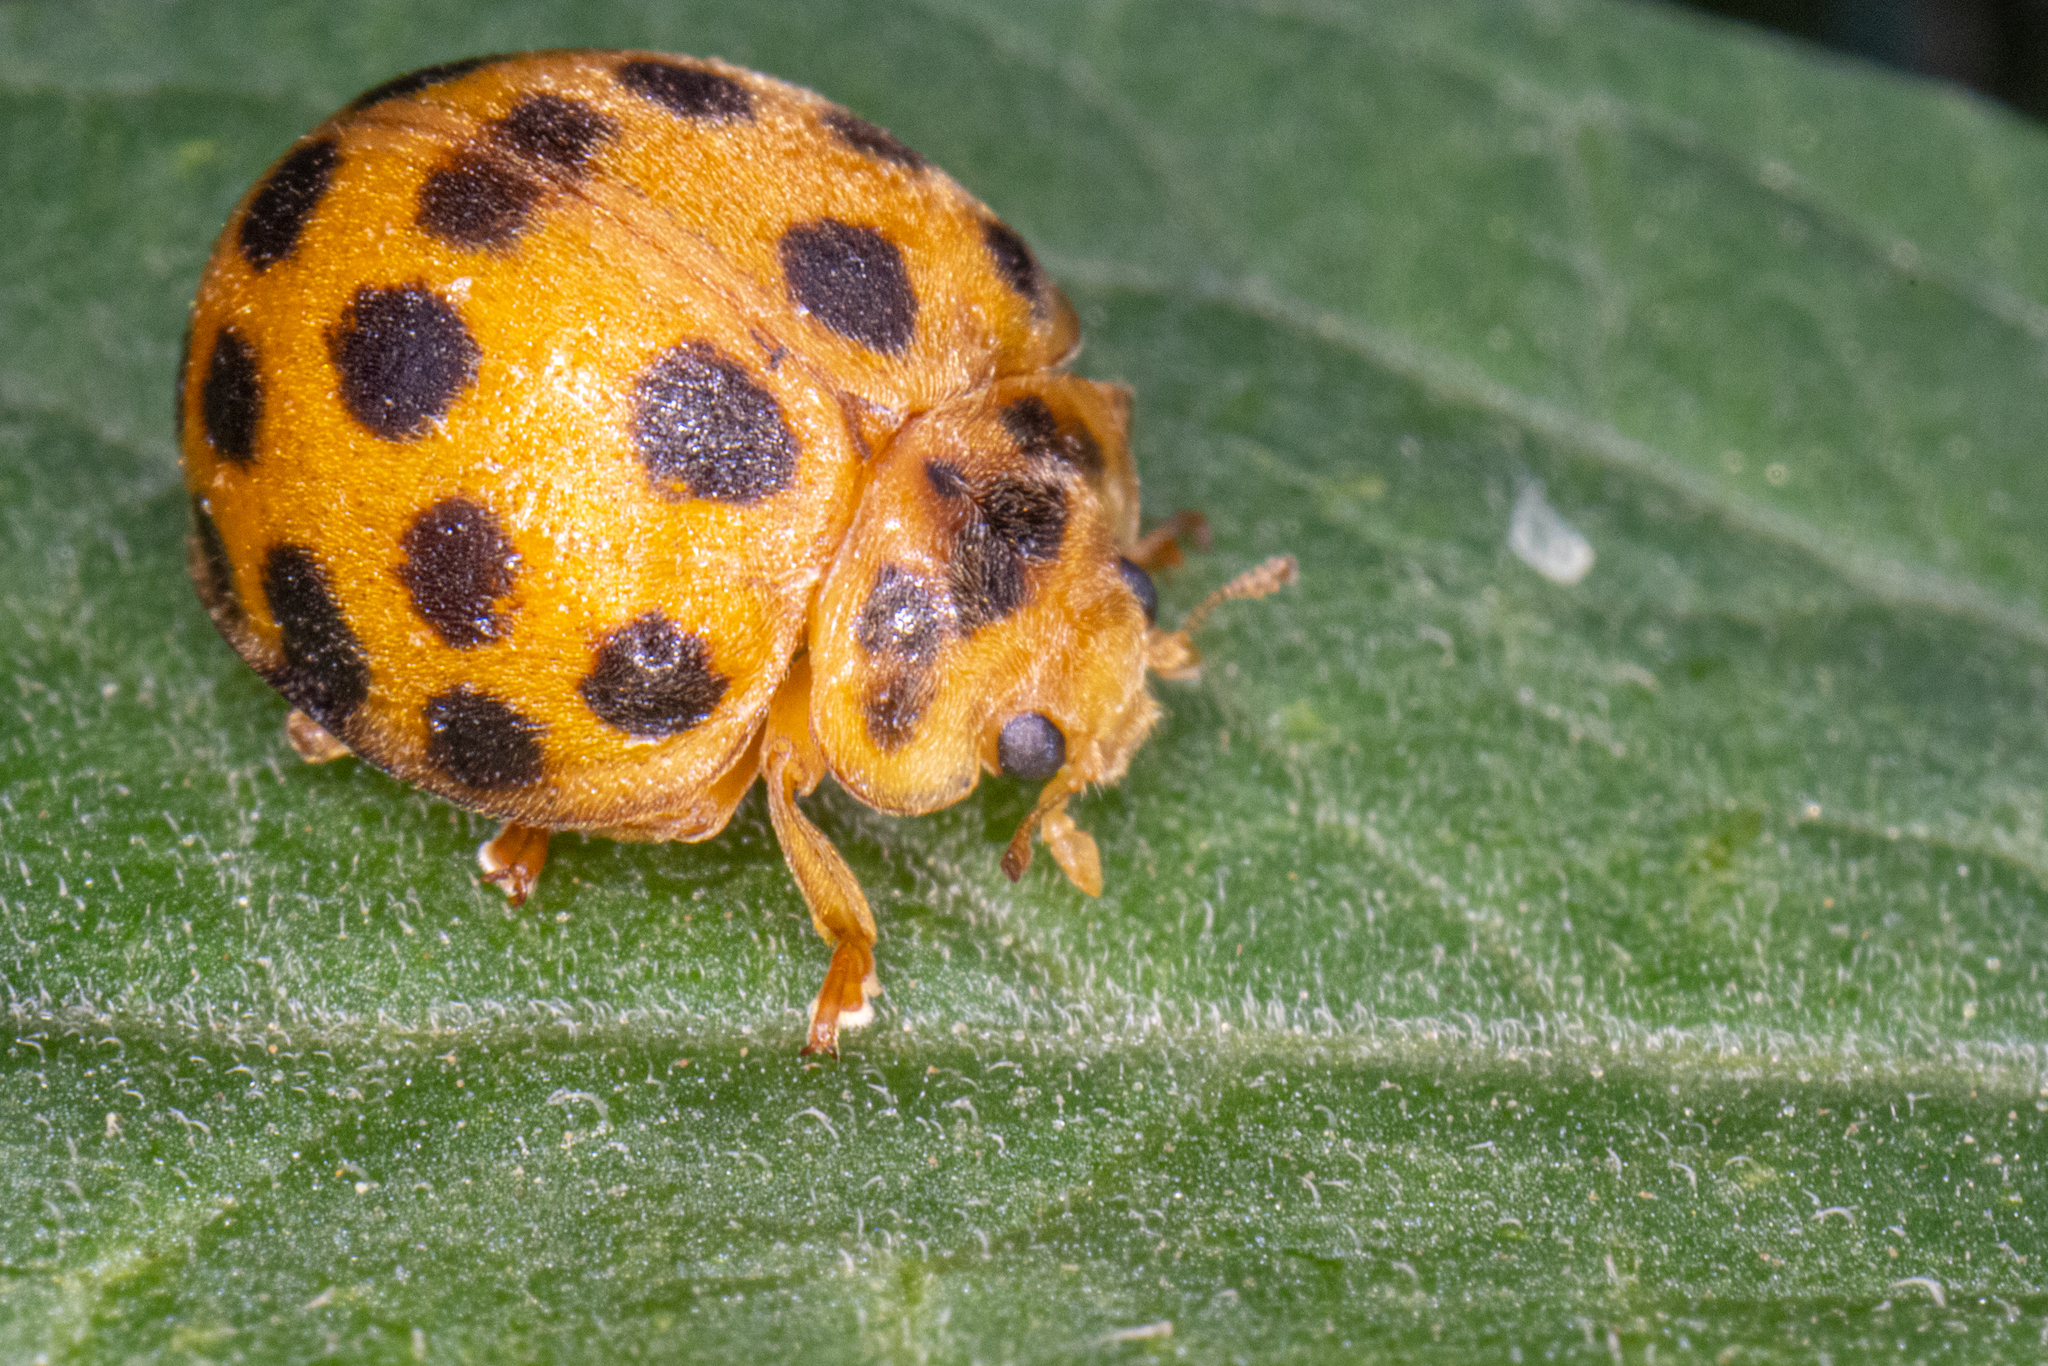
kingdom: Animalia
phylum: Arthropoda
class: Insecta
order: Coleoptera
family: Coccinellidae
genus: Henosepilachna
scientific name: Henosepilachna vigintioctopunctata
